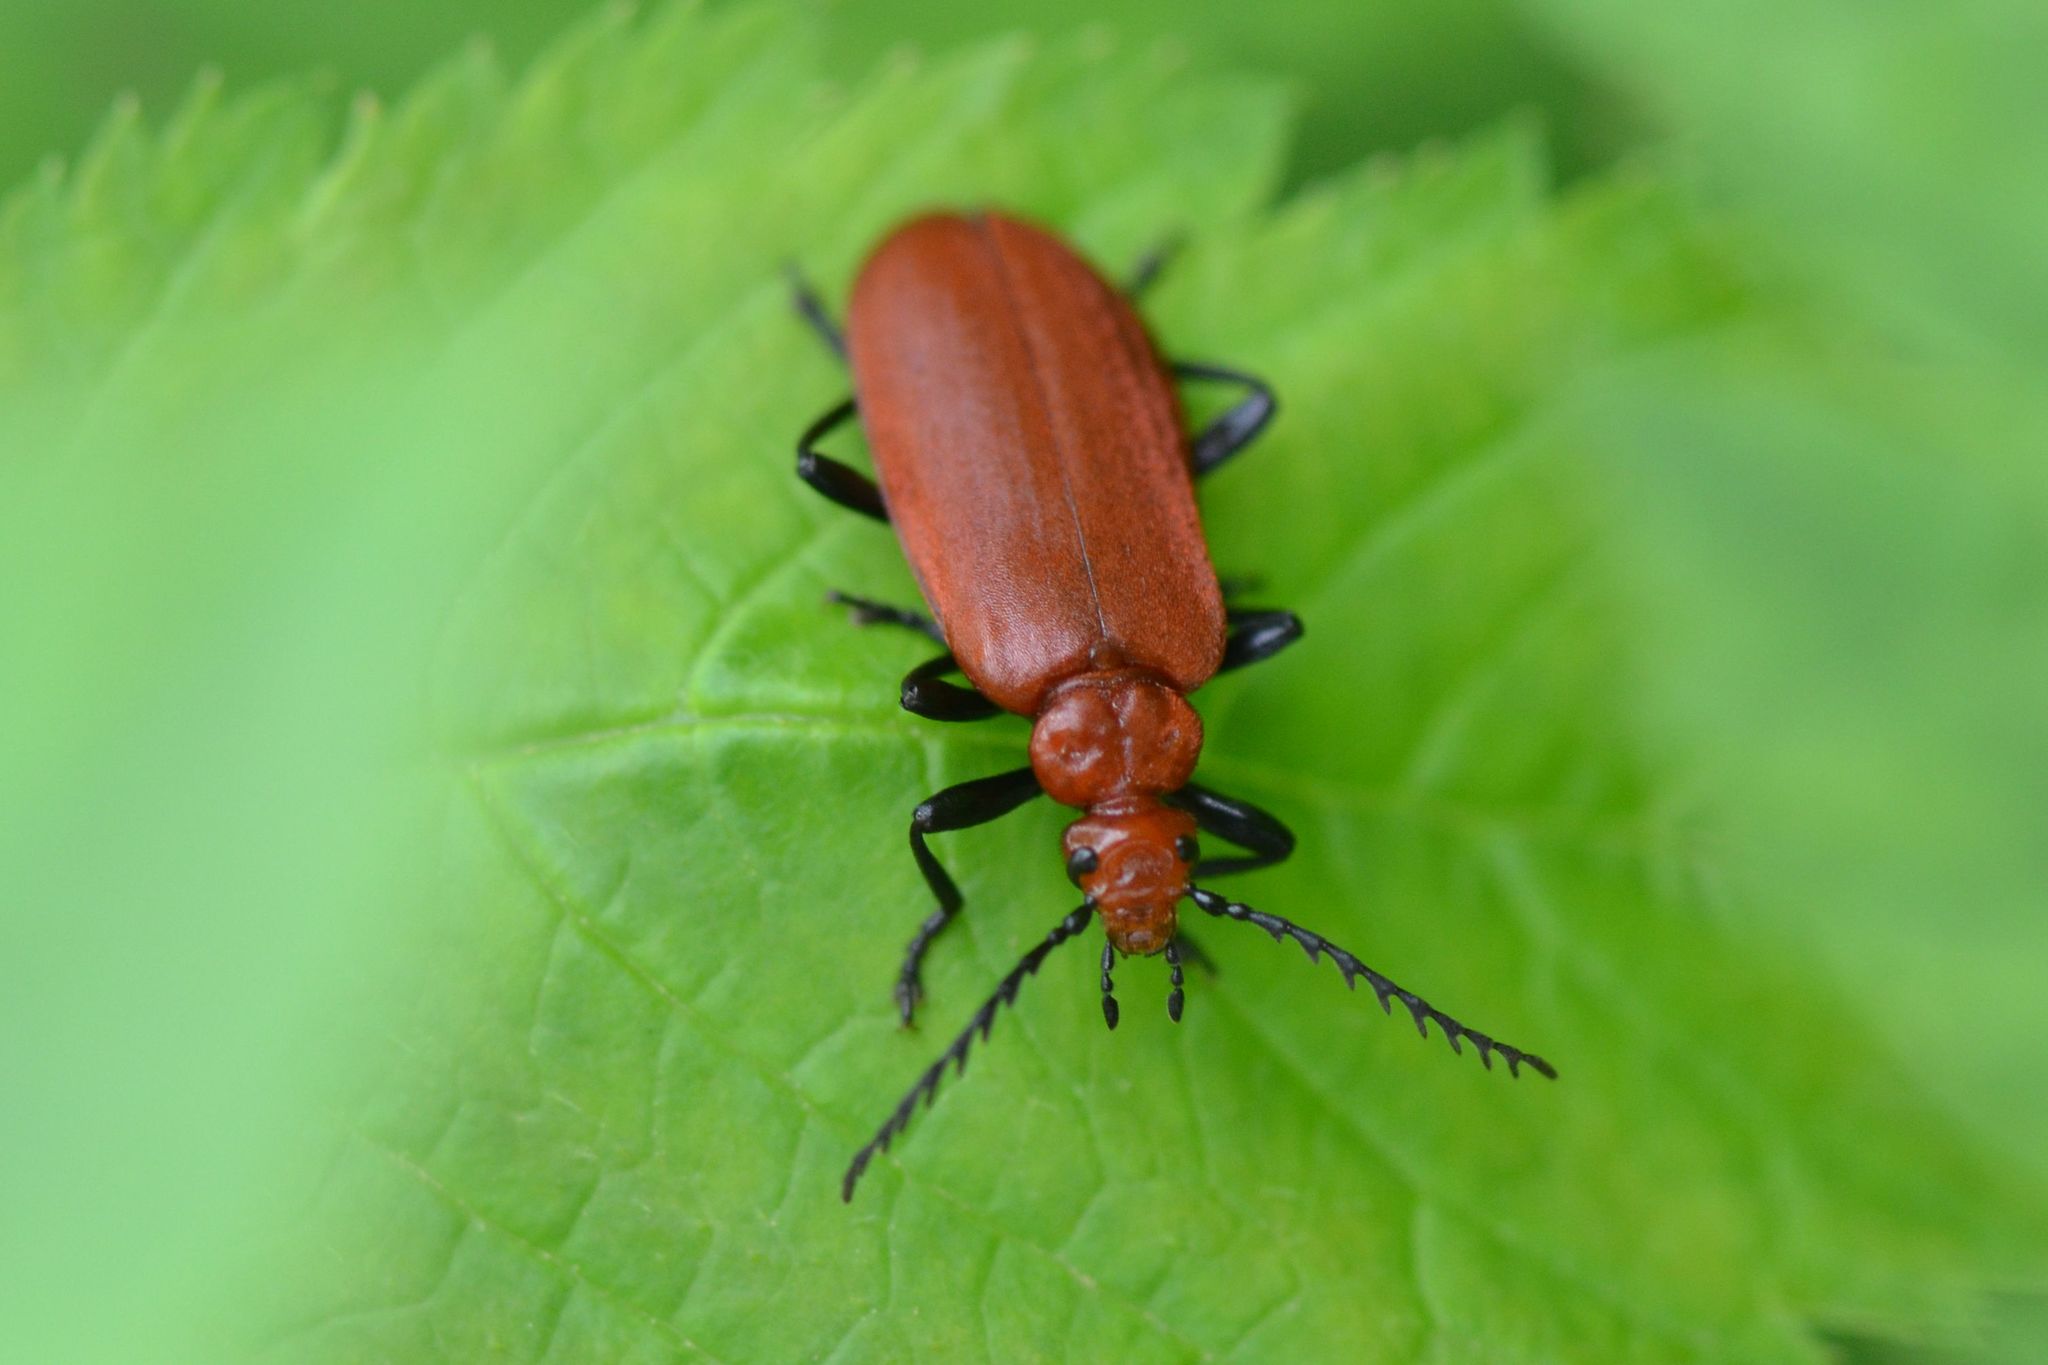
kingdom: Animalia
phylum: Arthropoda
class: Insecta
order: Coleoptera
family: Pyrochroidae
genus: Pyrochroa
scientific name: Pyrochroa serraticornis
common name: Red-headed cardinal beetle
